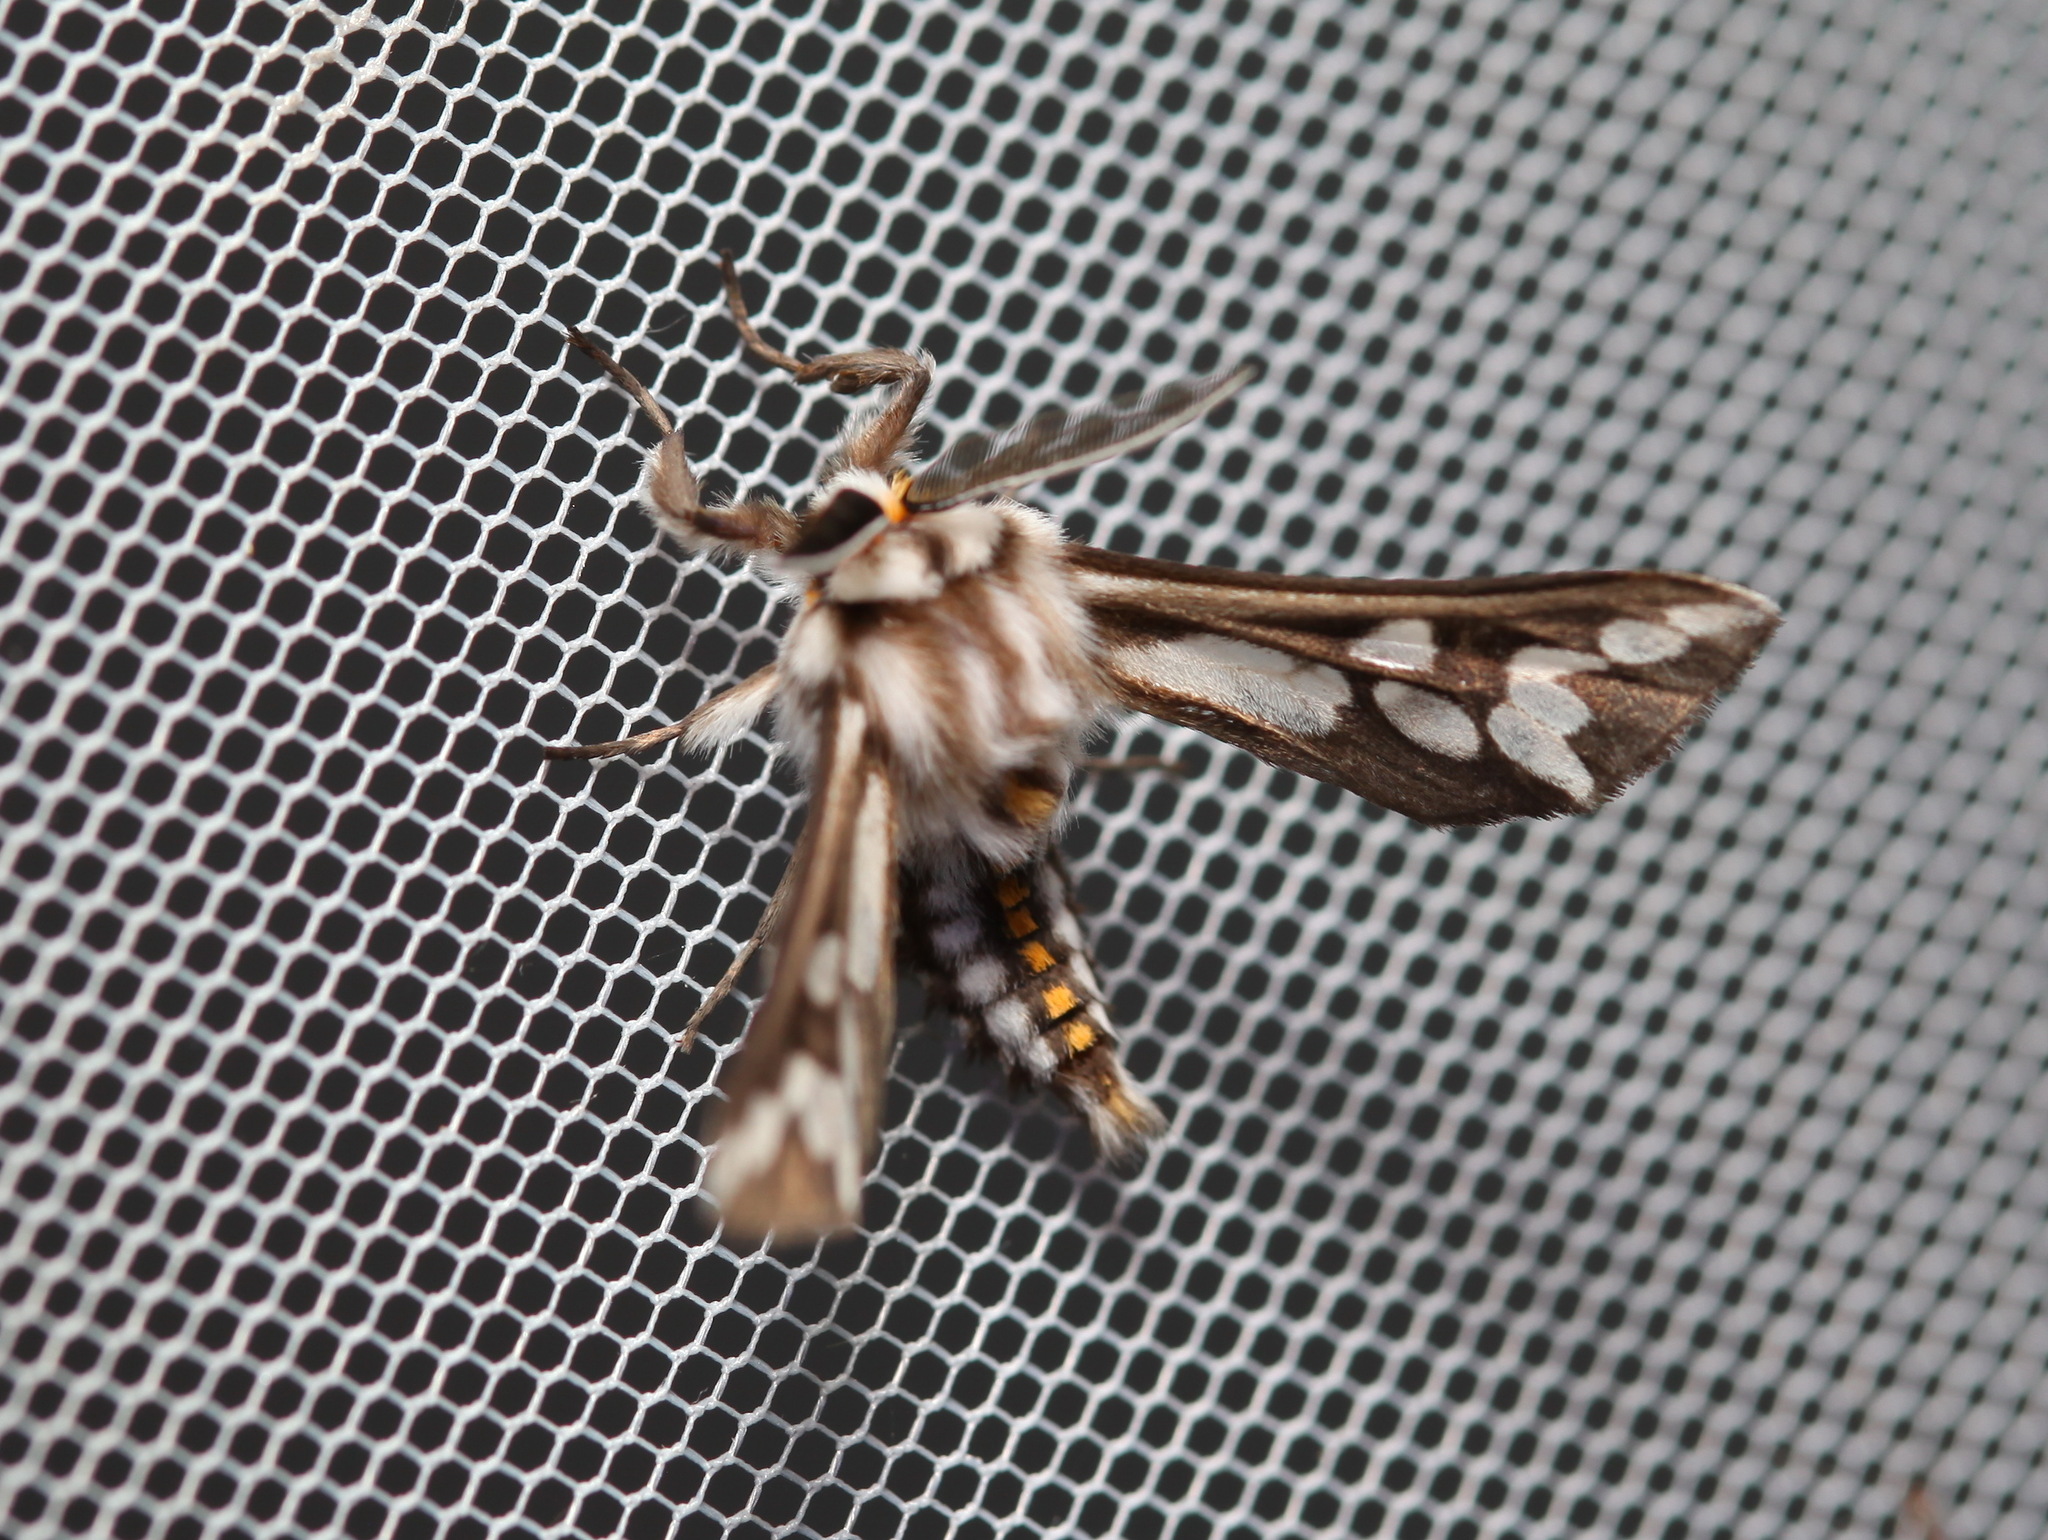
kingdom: Animalia
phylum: Arthropoda
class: Insecta
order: Lepidoptera
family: Erebidae
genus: Thyretes
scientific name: Thyretes hippotes
